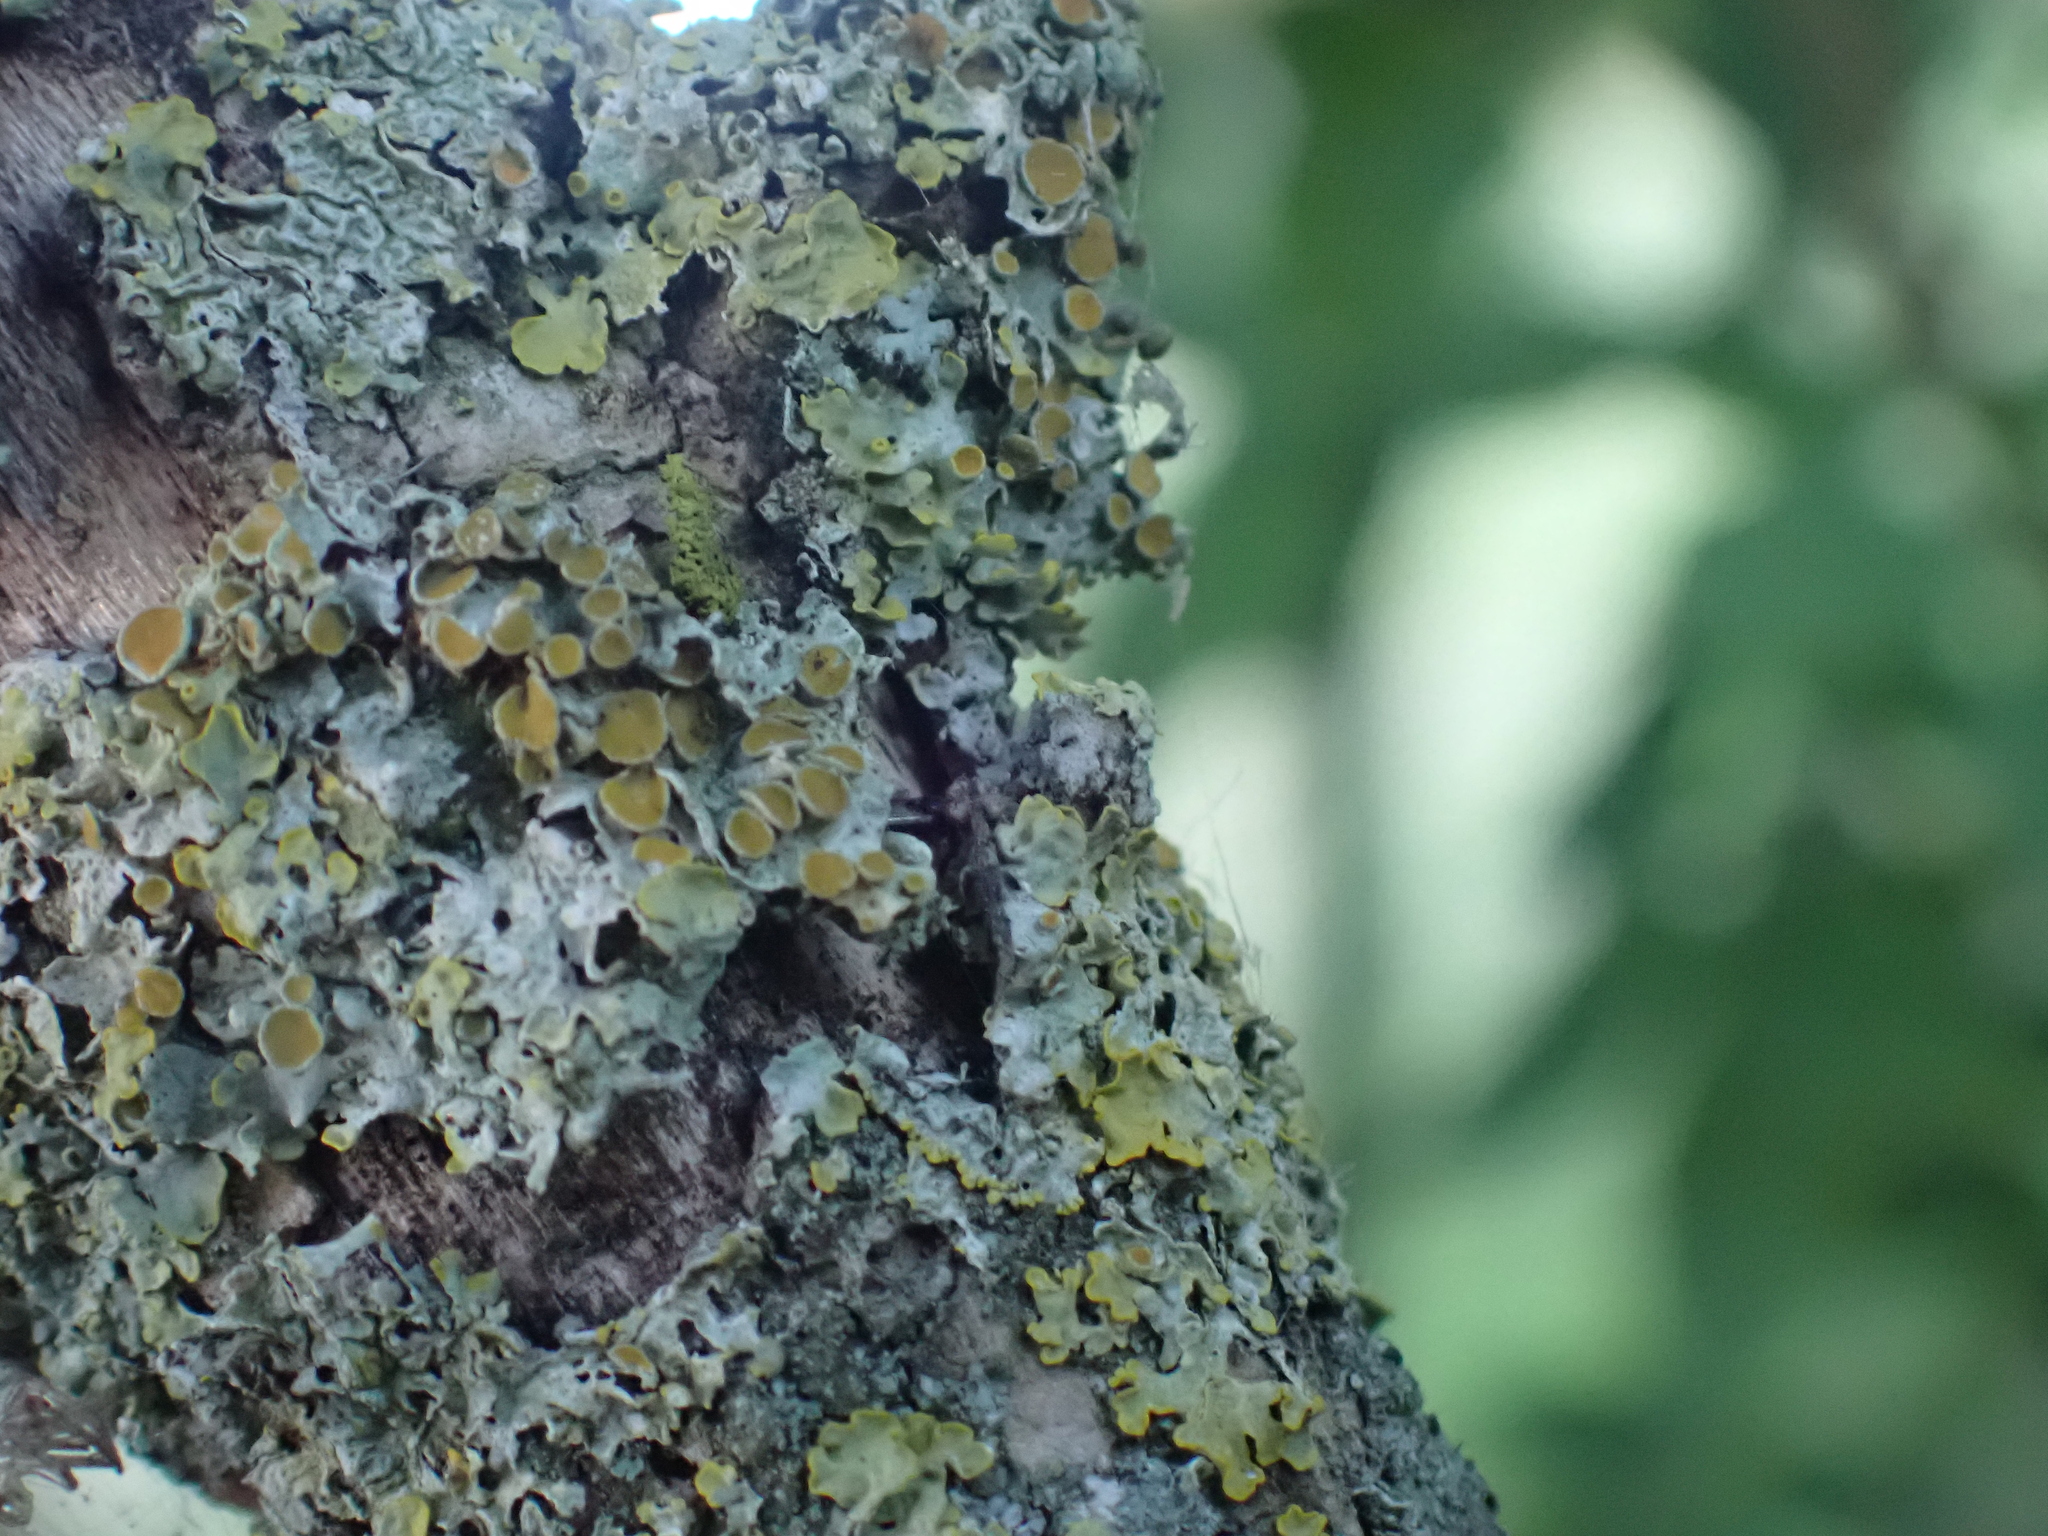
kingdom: Fungi
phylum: Ascomycota
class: Lecanoromycetes
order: Teloschistales
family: Teloschistaceae
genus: Xanthoria
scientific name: Xanthoria parietina
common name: Common orange lichen
